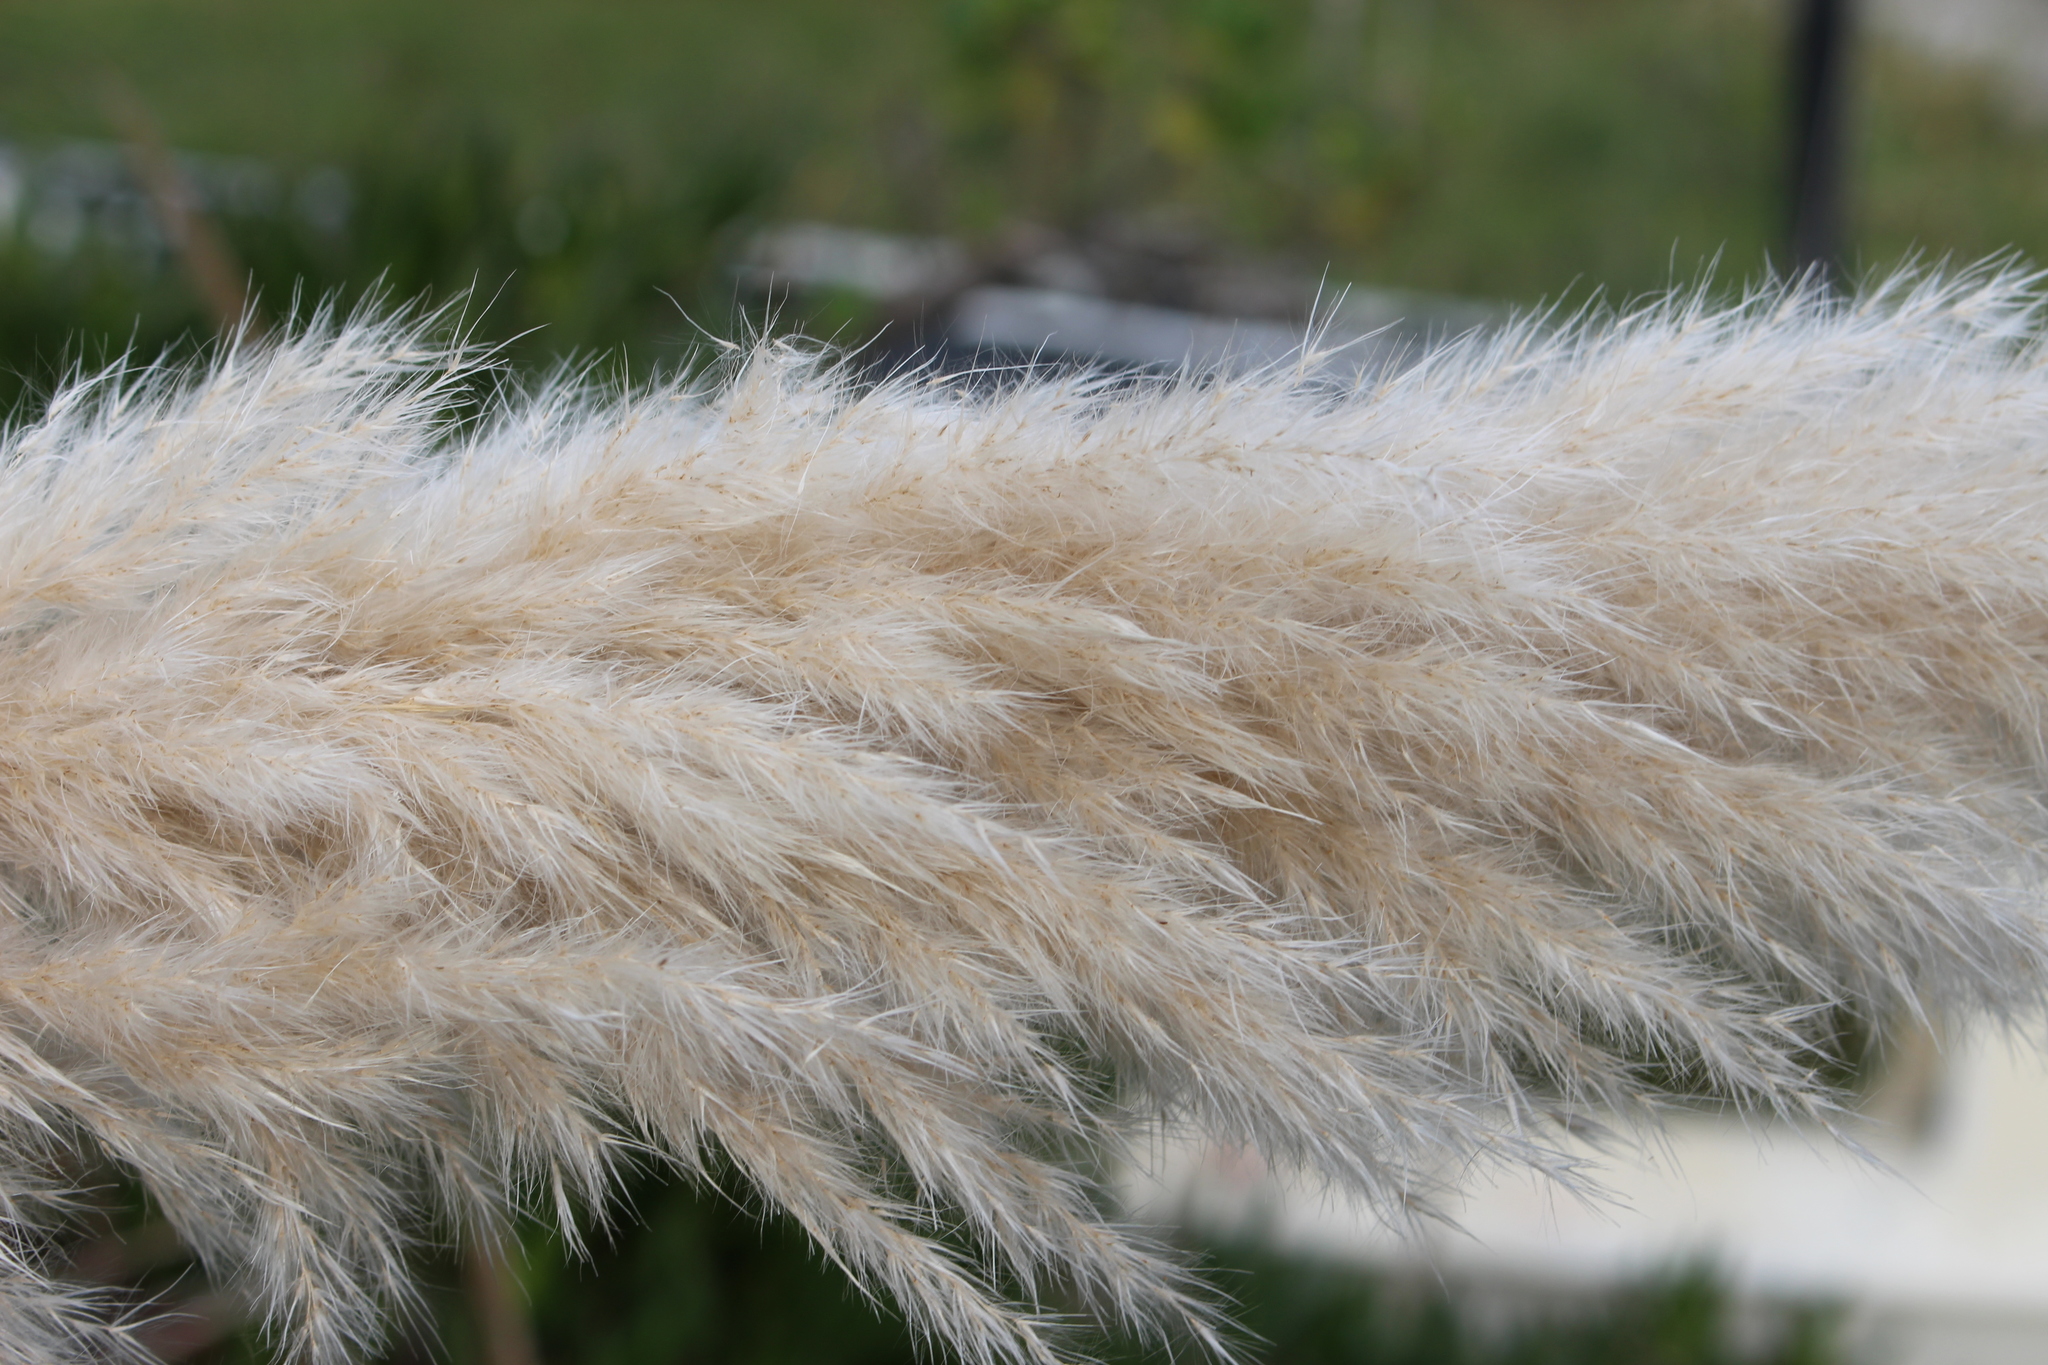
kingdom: Plantae
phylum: Tracheophyta
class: Liliopsida
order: Poales
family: Poaceae
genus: Cortaderia
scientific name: Cortaderia selloana
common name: Uruguayan pampas grass
